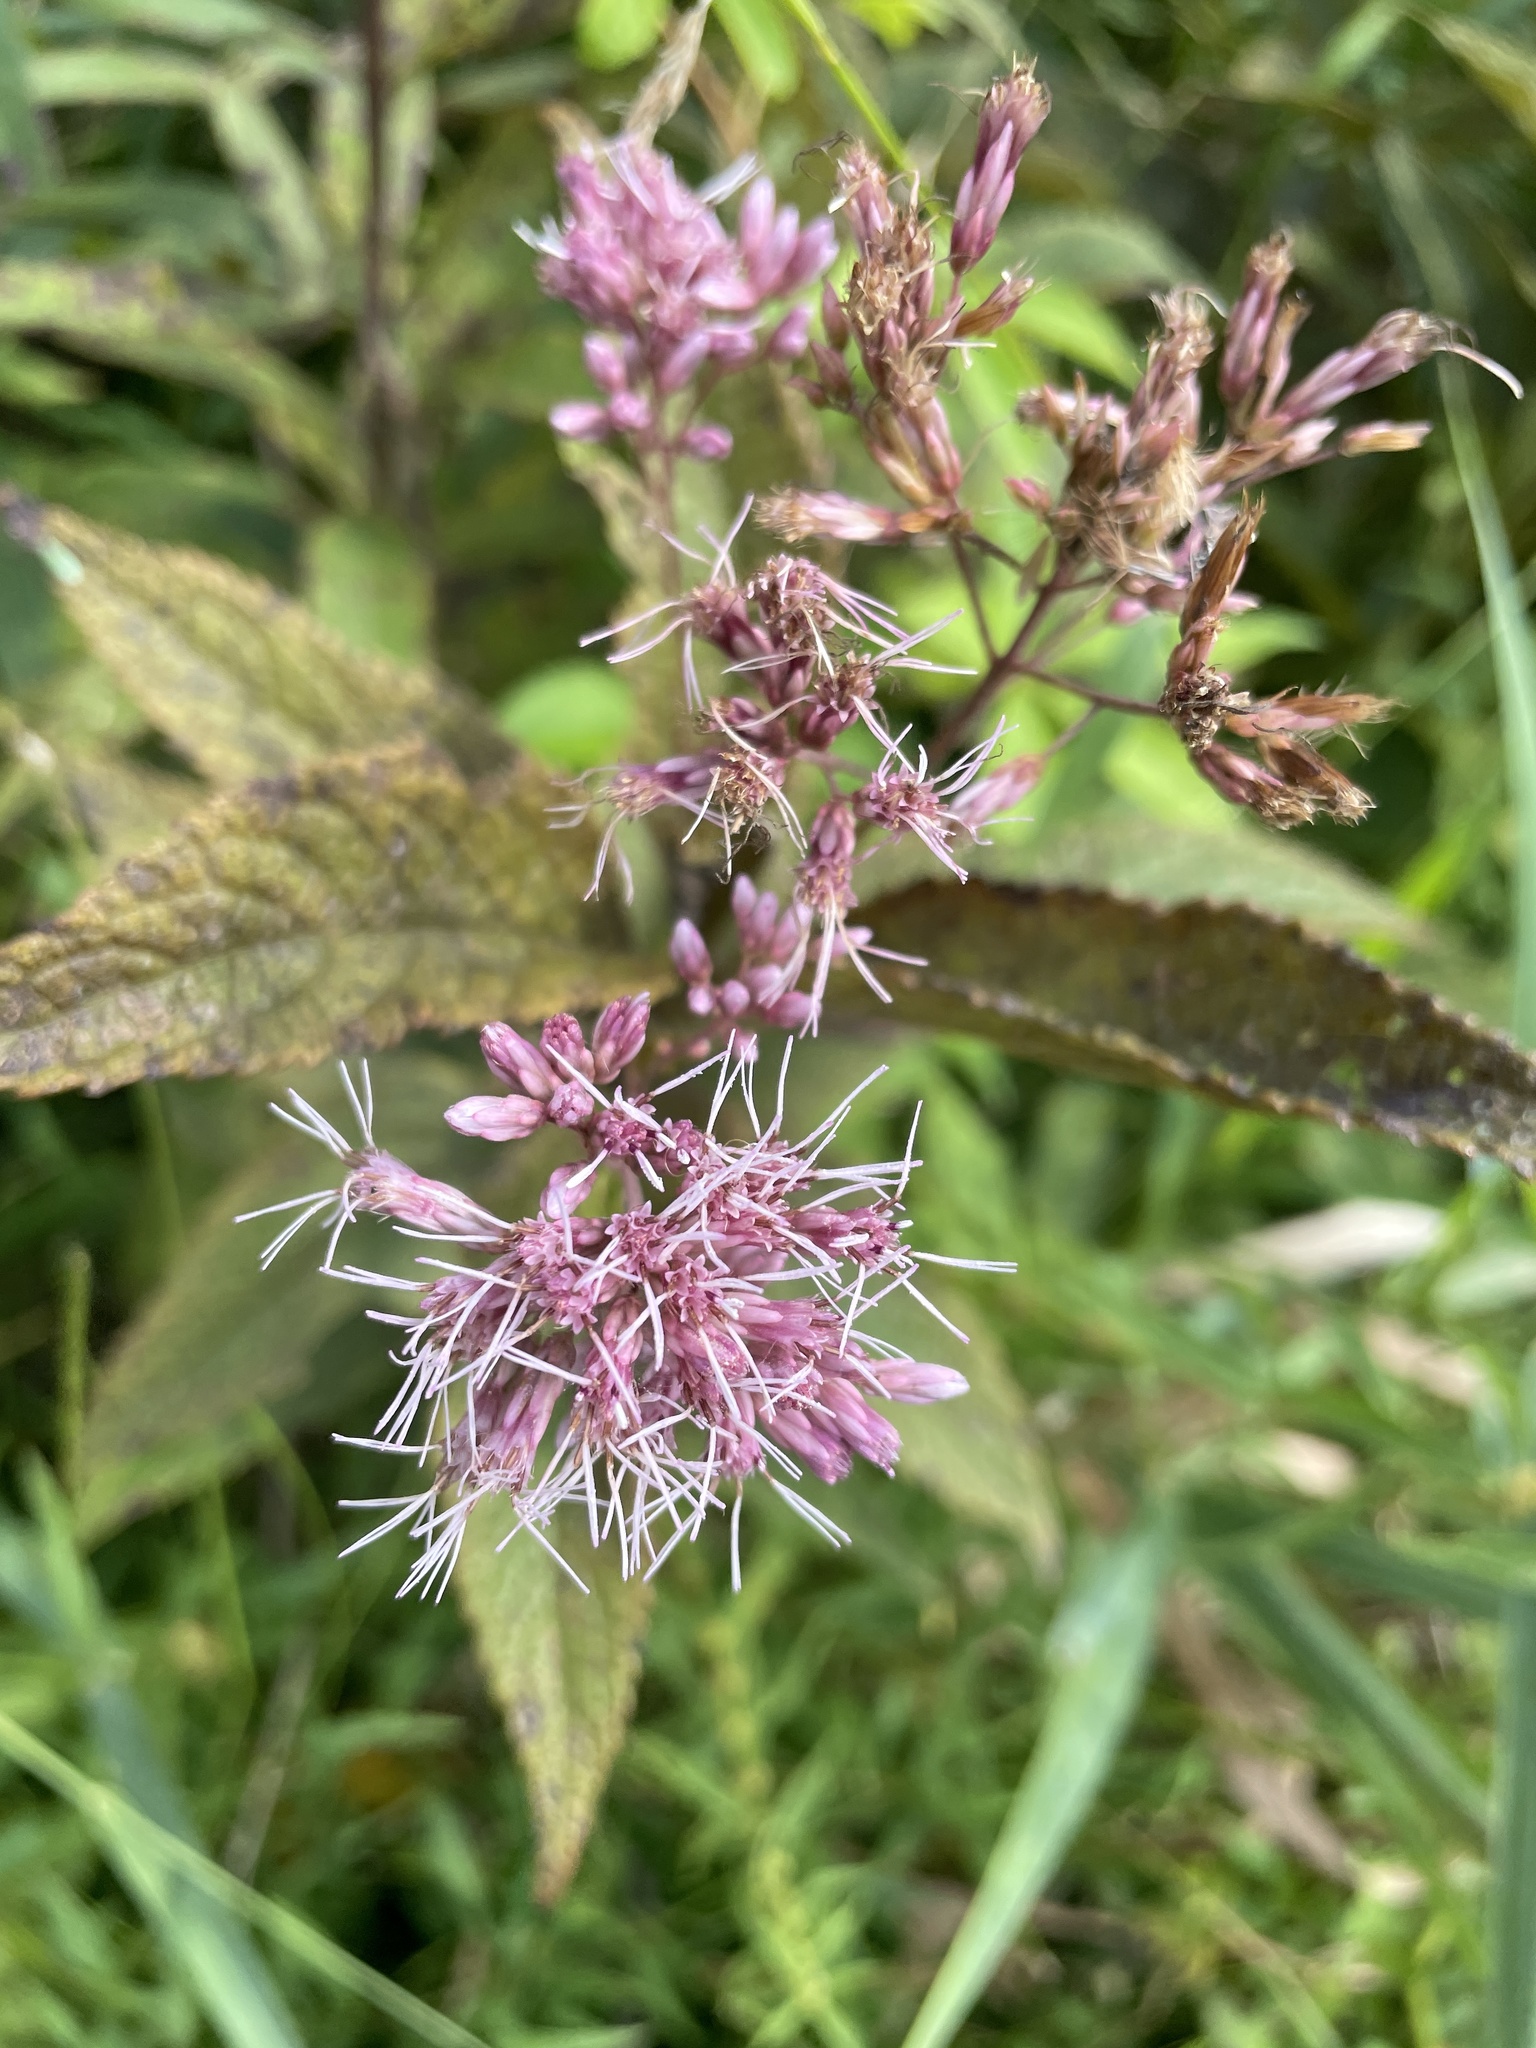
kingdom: Plantae
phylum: Tracheophyta
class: Magnoliopsida
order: Asterales
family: Asteraceae
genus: Eutrochium
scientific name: Eutrochium dubium
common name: Coastal plain joe pye weed
